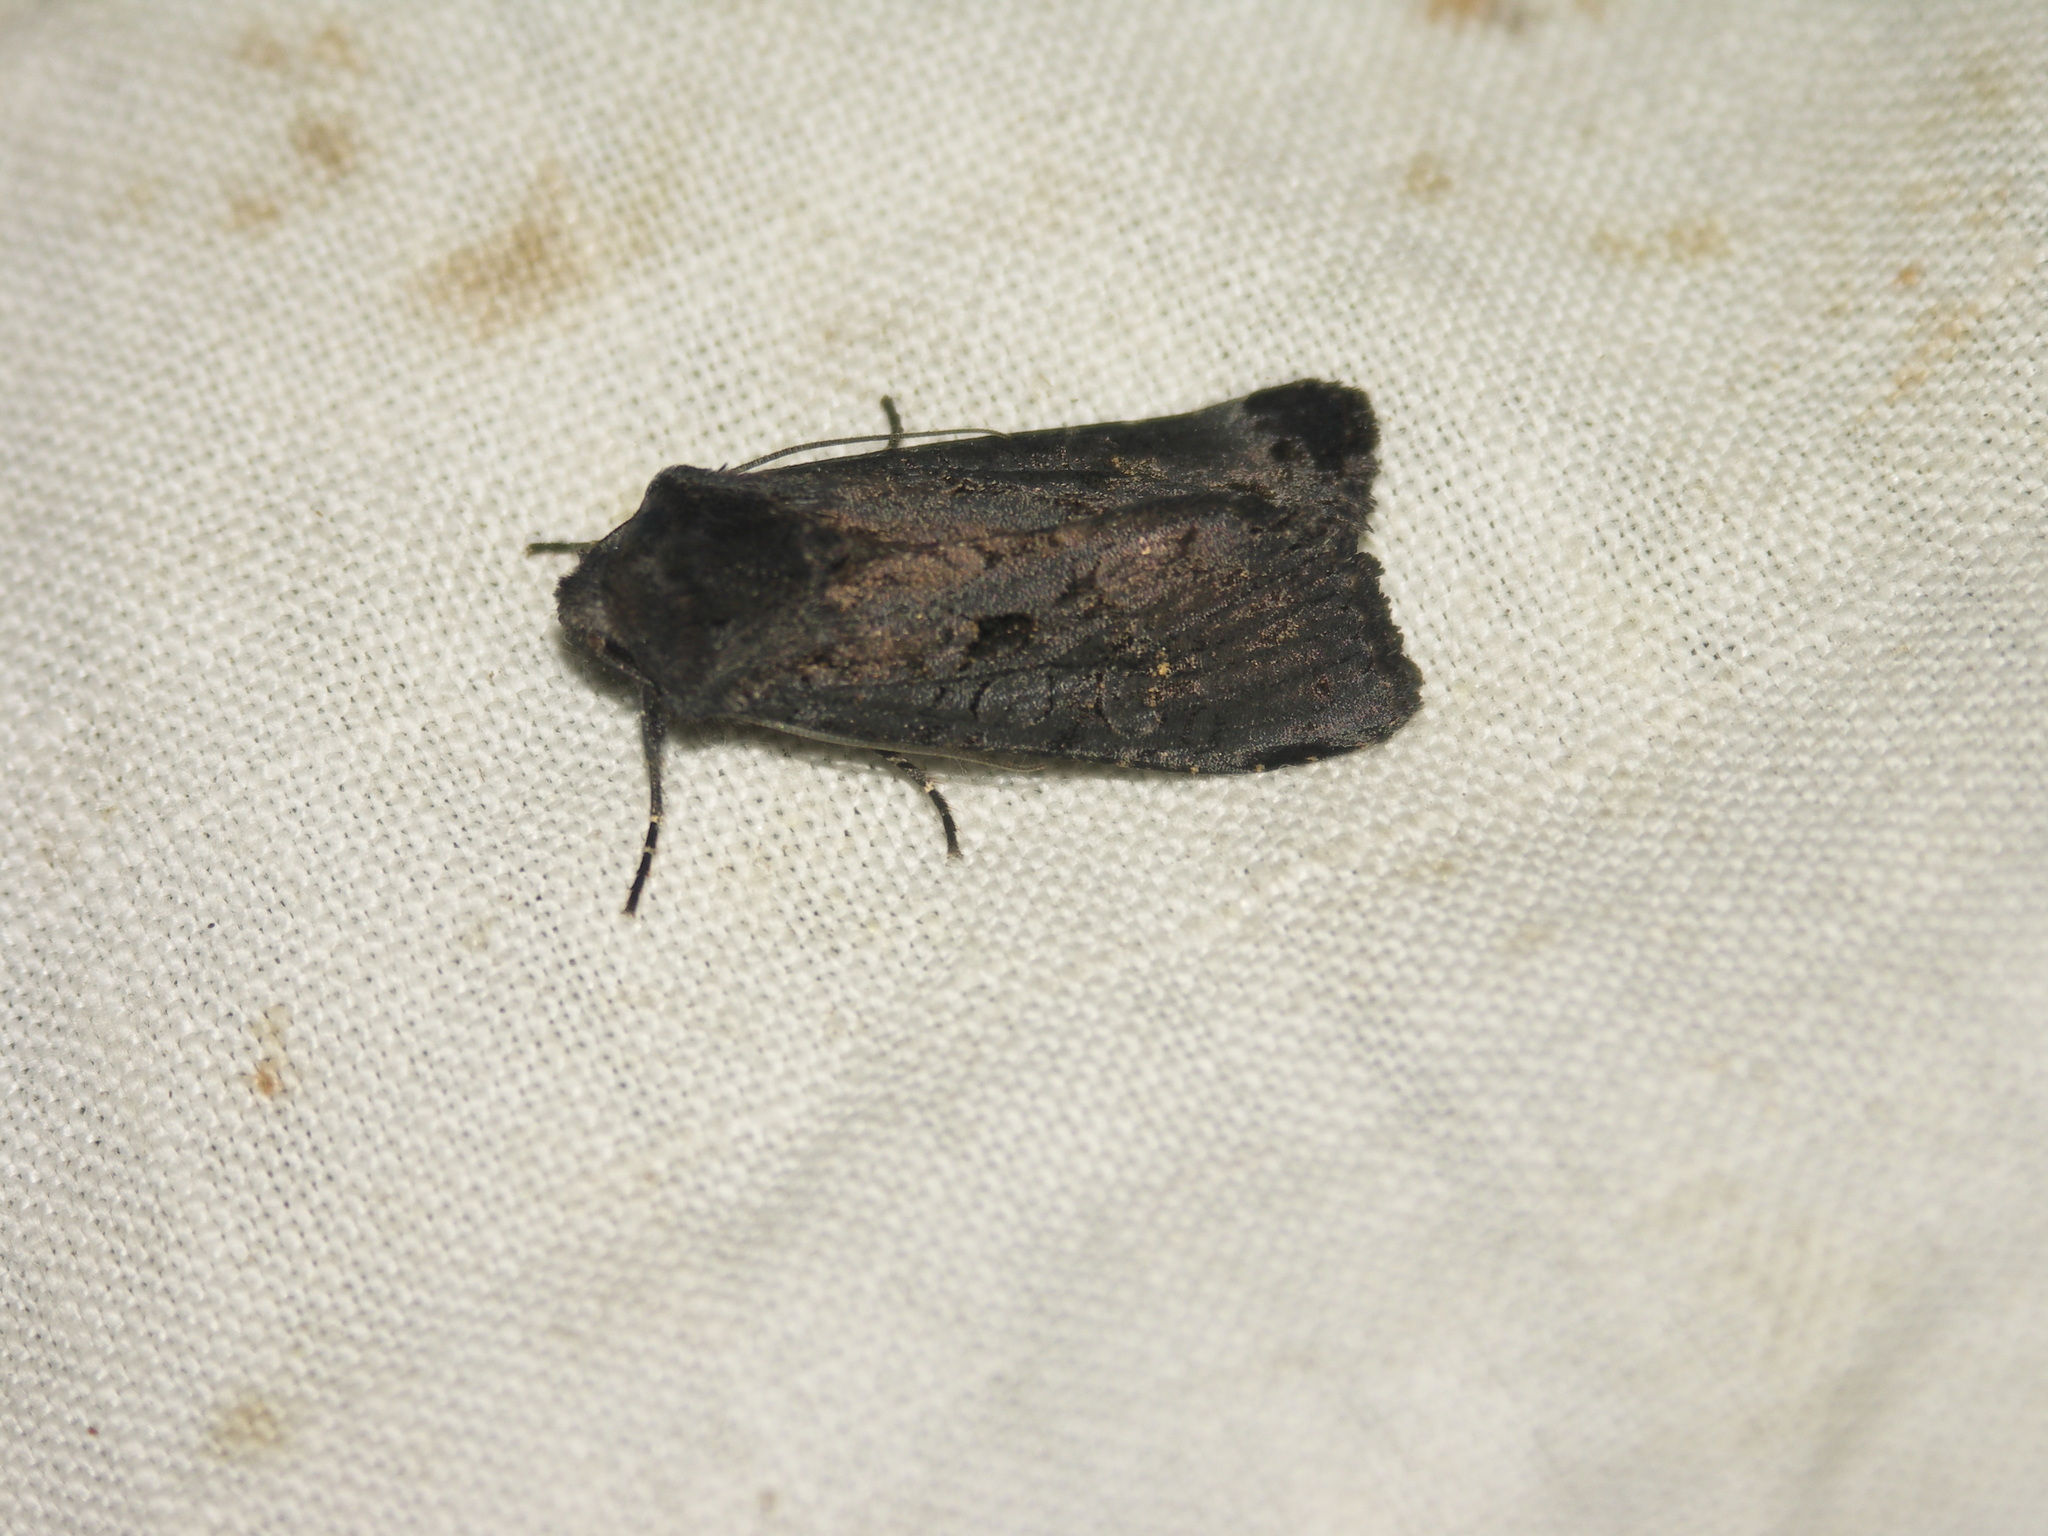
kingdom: Animalia
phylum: Arthropoda
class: Insecta
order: Lepidoptera
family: Noctuidae
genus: Aporophyla
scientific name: Aporophyla nigra
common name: Black rustic
